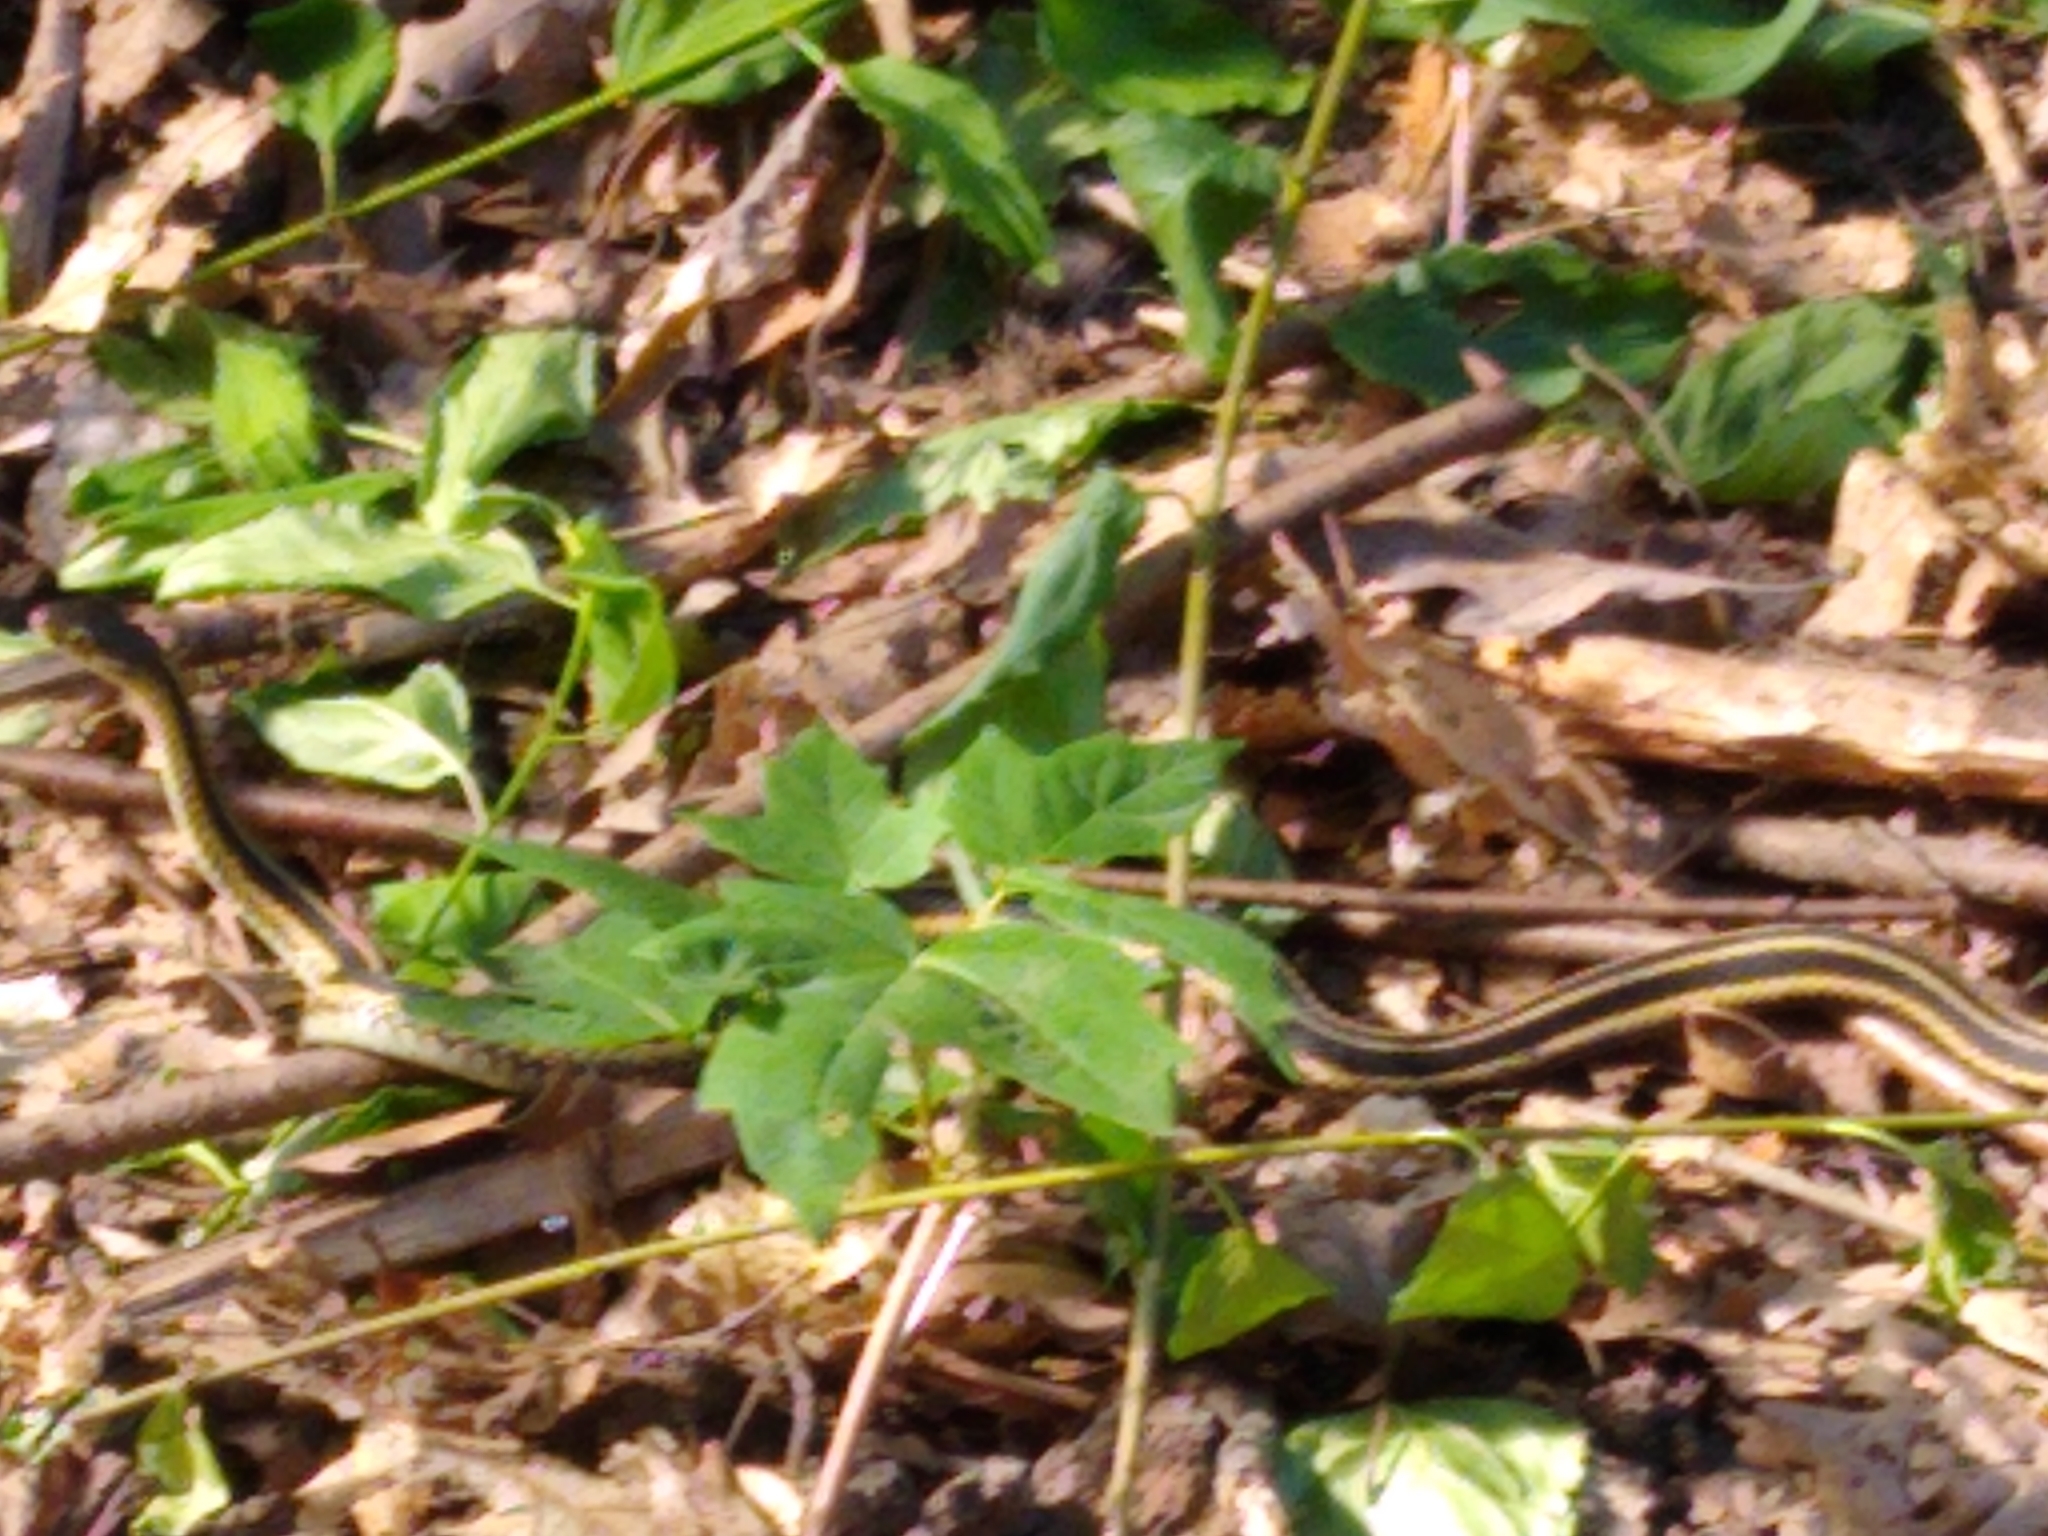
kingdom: Animalia
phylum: Chordata
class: Squamata
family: Colubridae
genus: Thamnophis
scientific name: Thamnophis sirtalis
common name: Common garter snake
